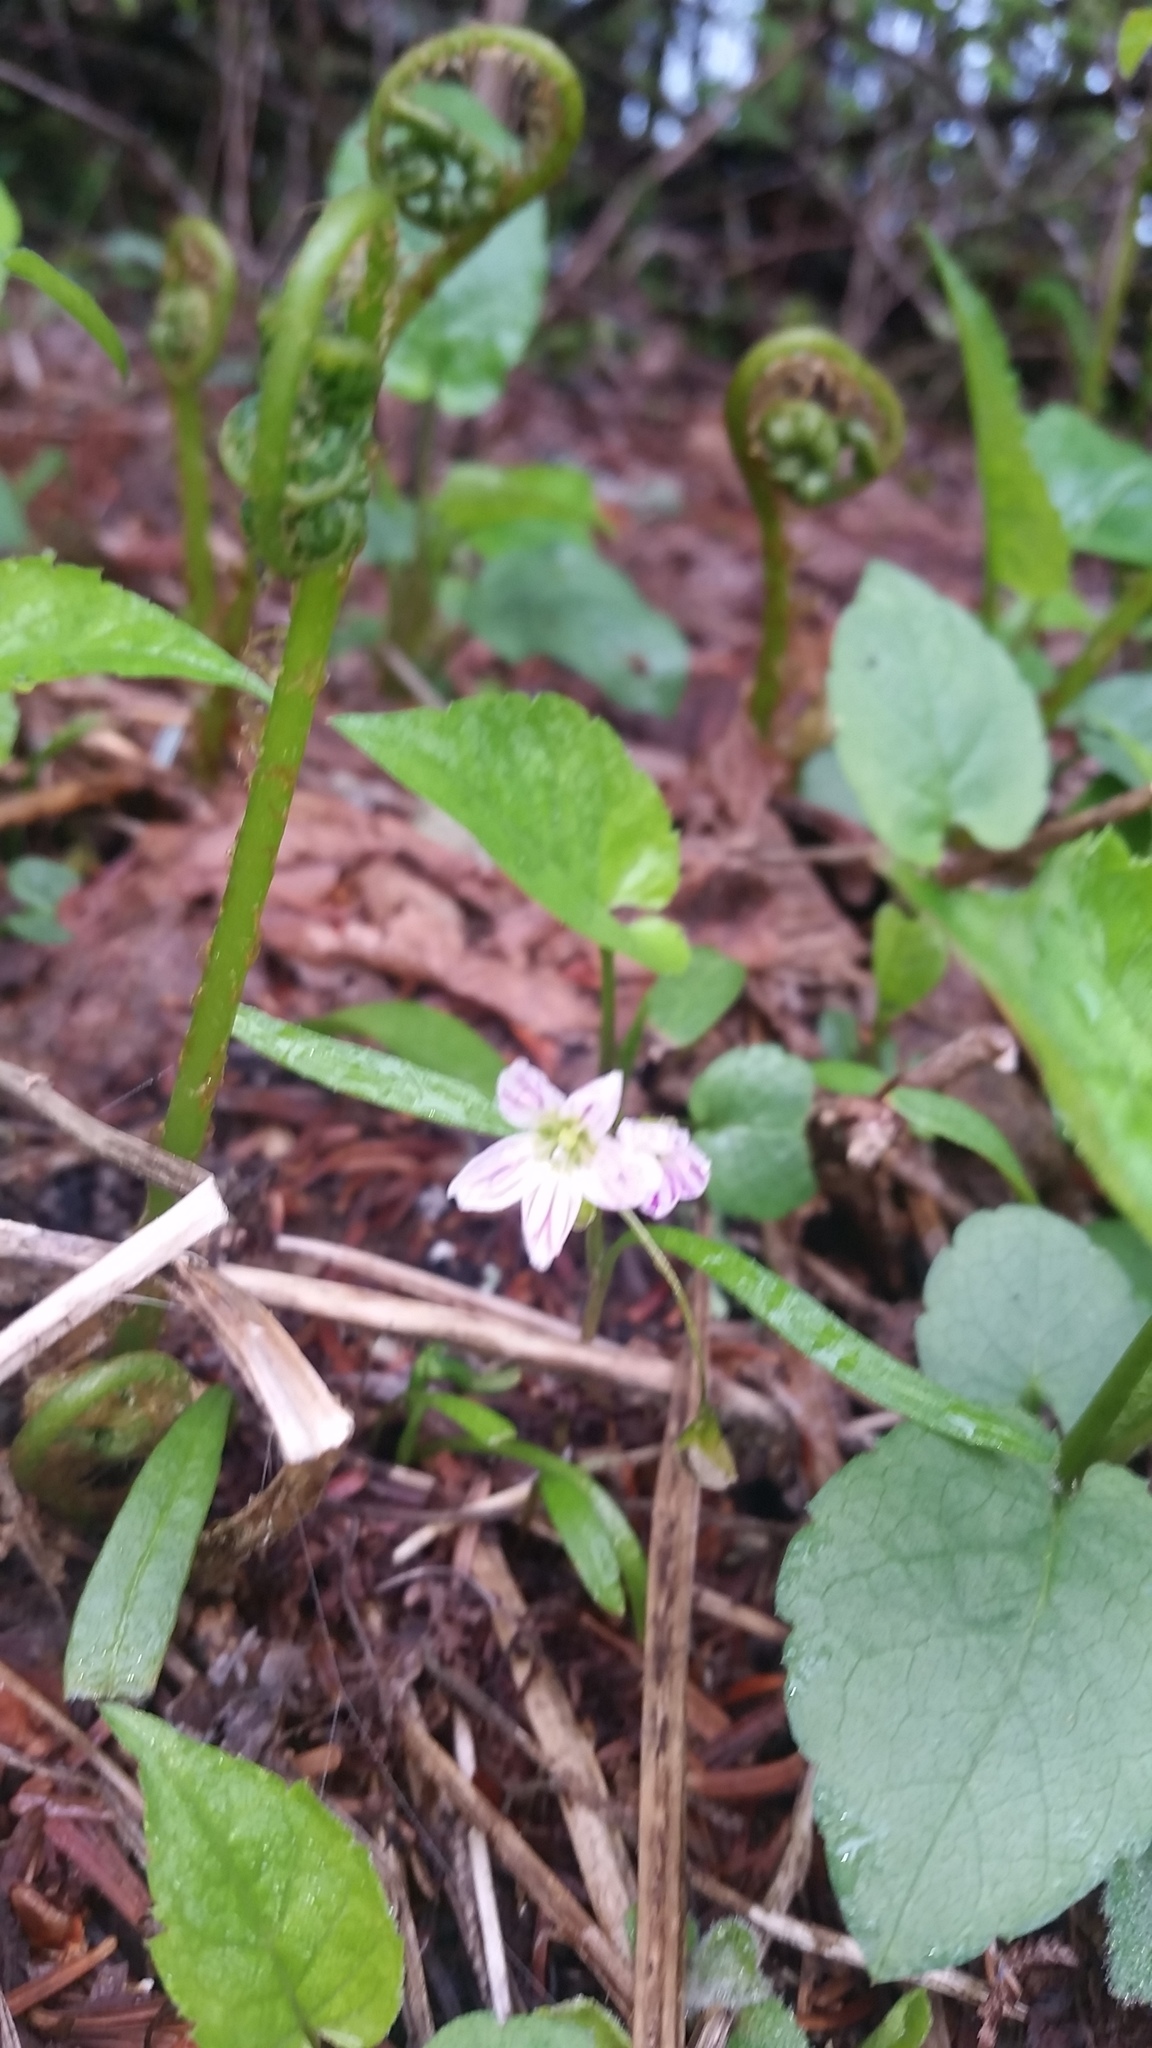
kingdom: Plantae
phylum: Tracheophyta
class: Magnoliopsida
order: Caryophyllales
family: Montiaceae
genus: Claytonia
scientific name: Claytonia virginica
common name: Virginia springbeauty
